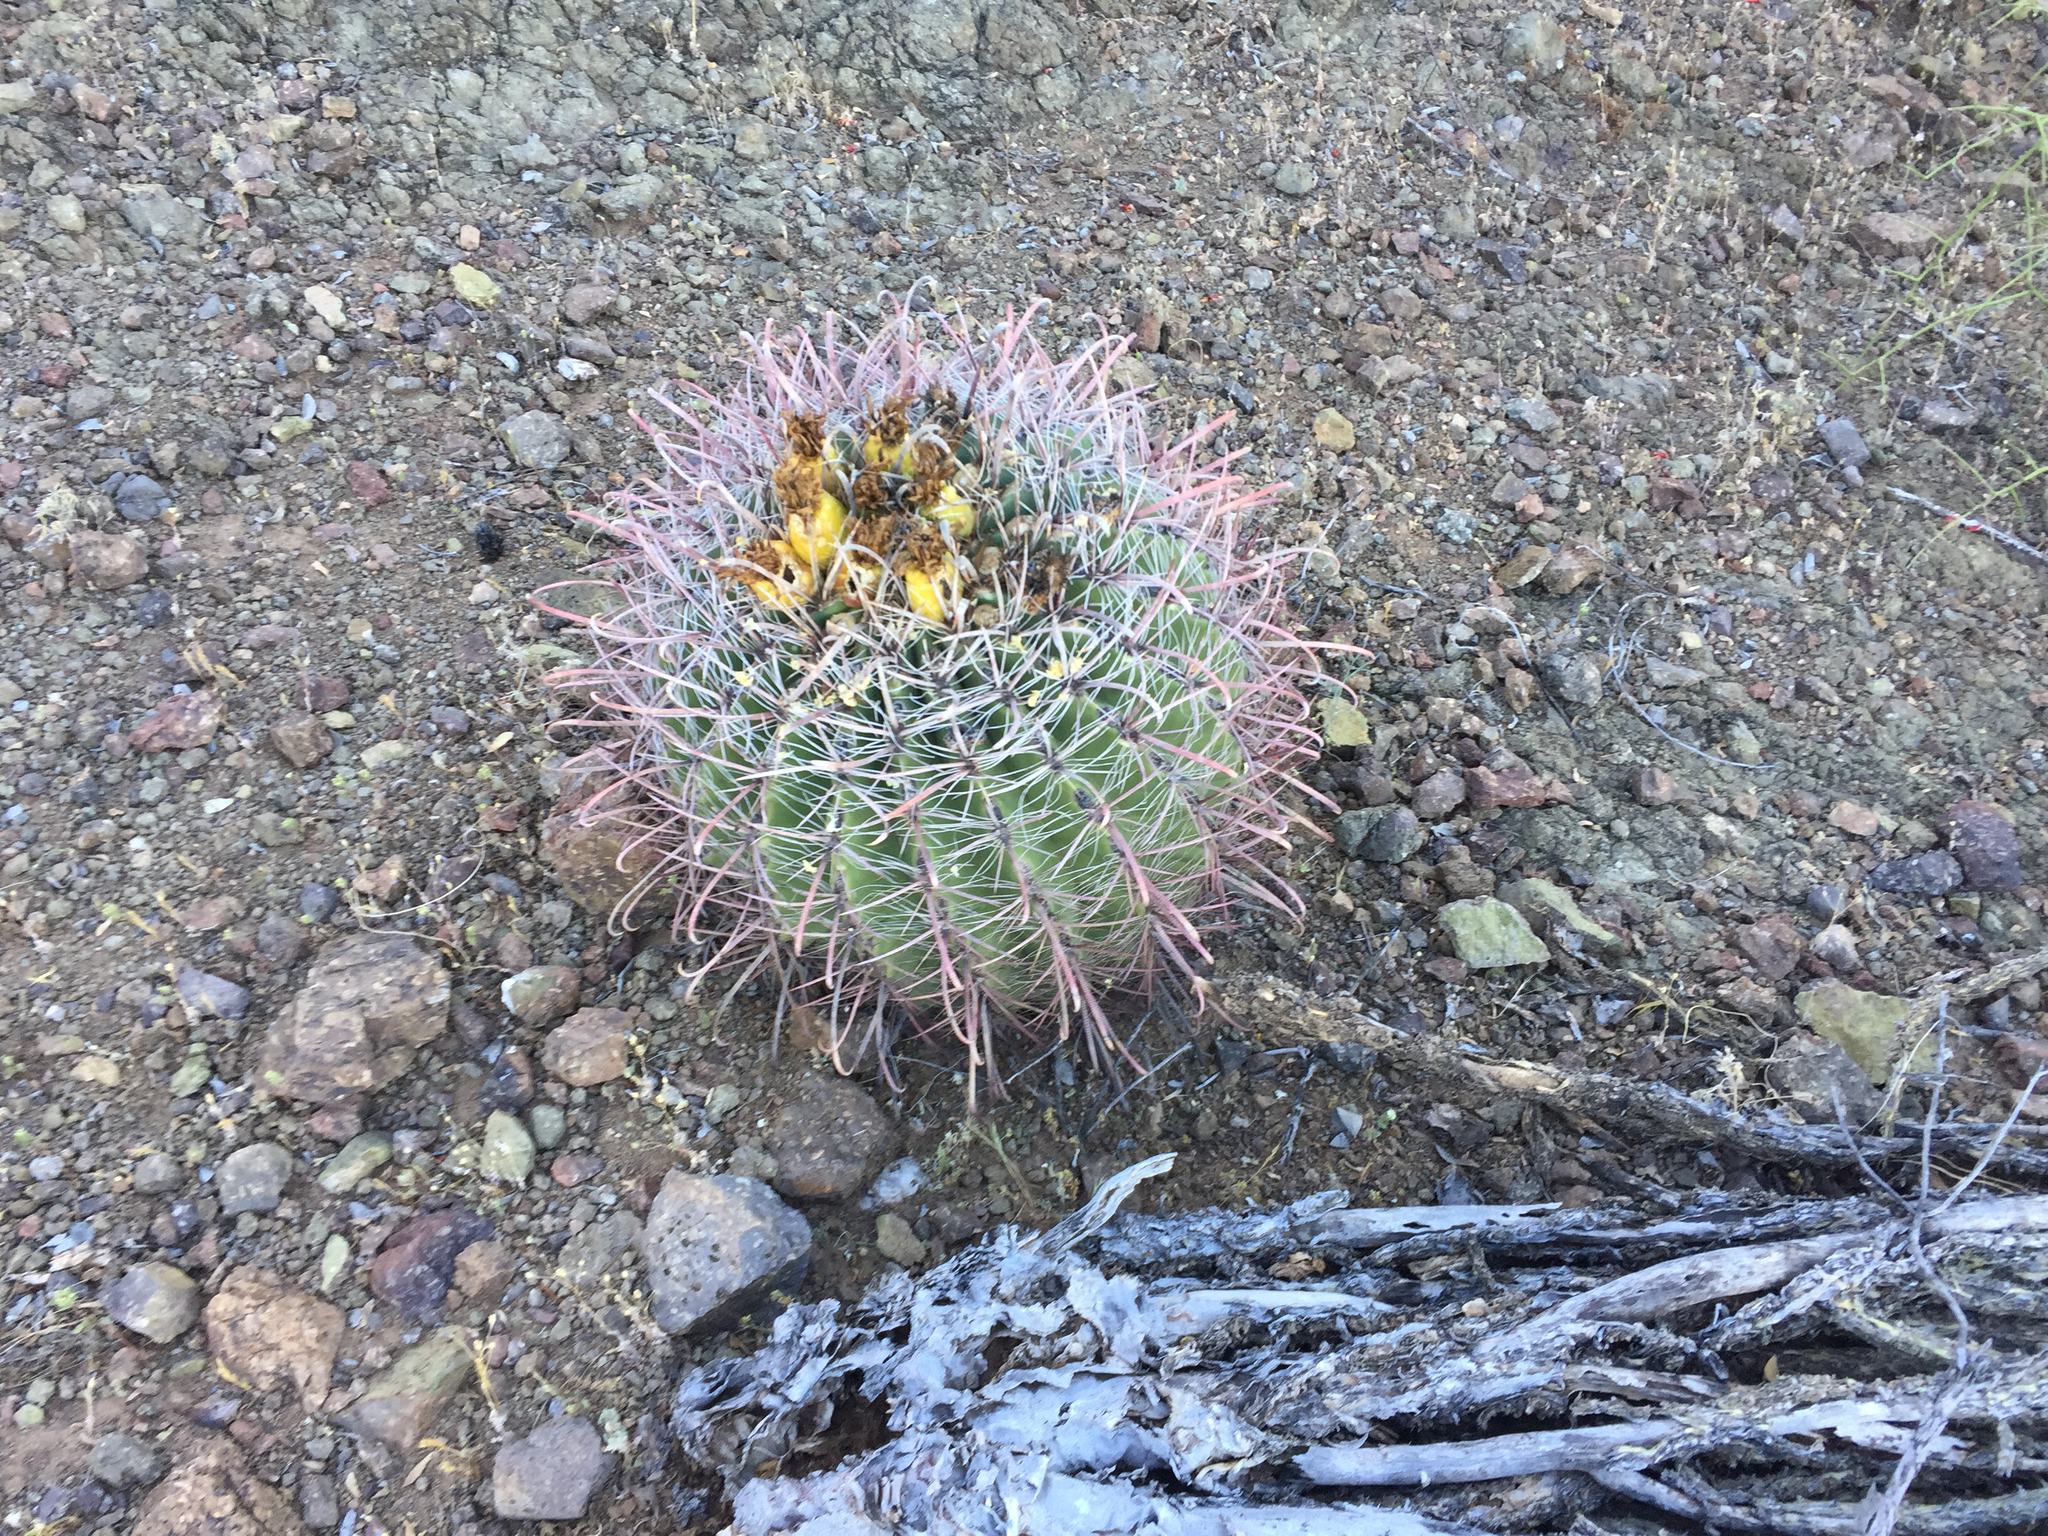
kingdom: Plantae
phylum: Tracheophyta
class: Magnoliopsida
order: Caryophyllales
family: Cactaceae
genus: Ferocactus
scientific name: Ferocactus wislizeni
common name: Candy barrel cactus
